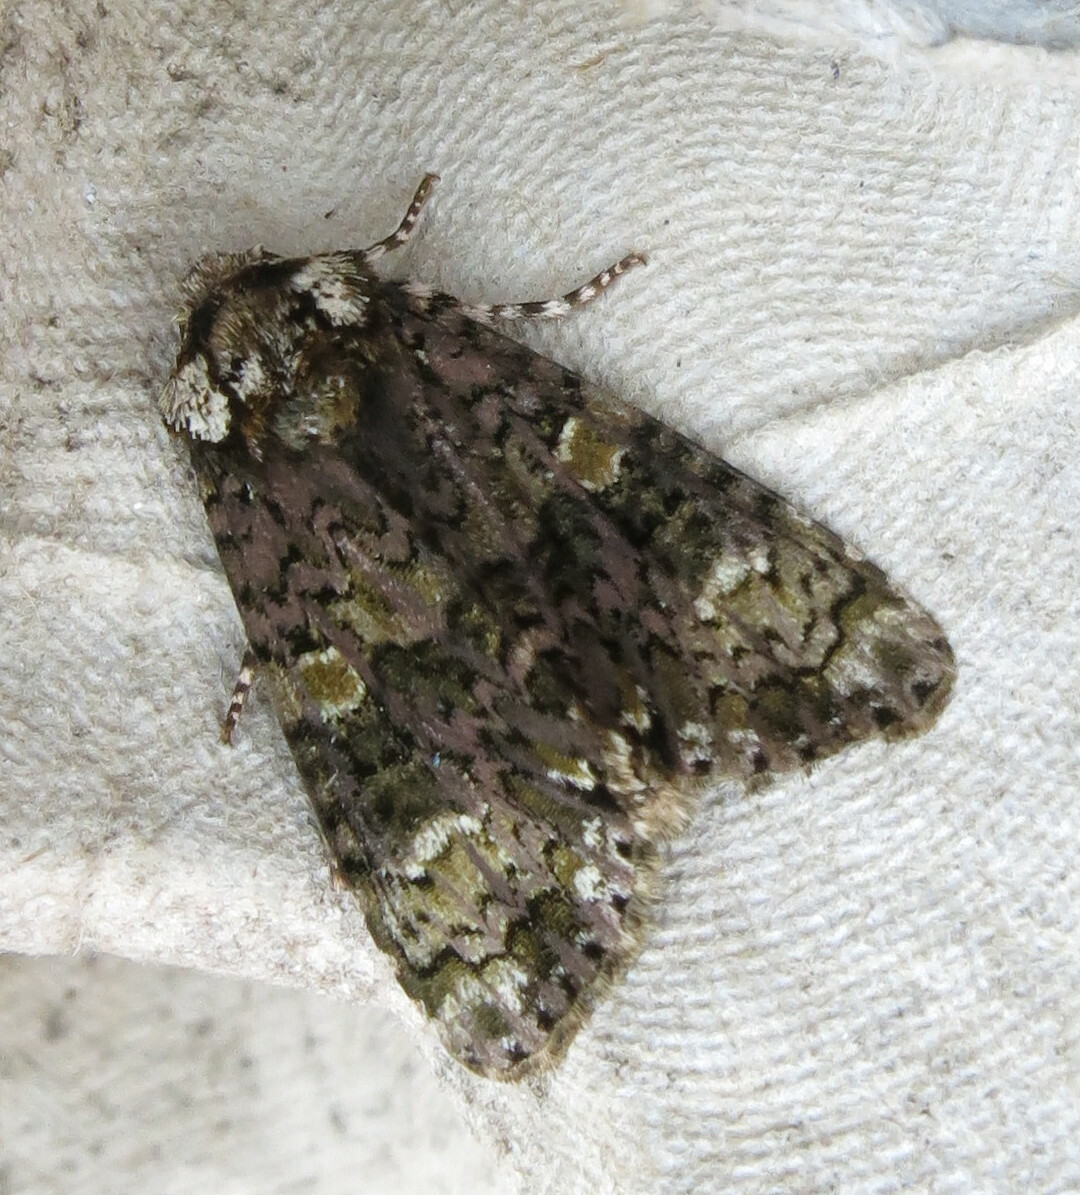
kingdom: Animalia
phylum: Arthropoda
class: Insecta
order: Lepidoptera
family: Noctuidae
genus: Craniophora
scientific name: Craniophora ligustri
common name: Coronet
